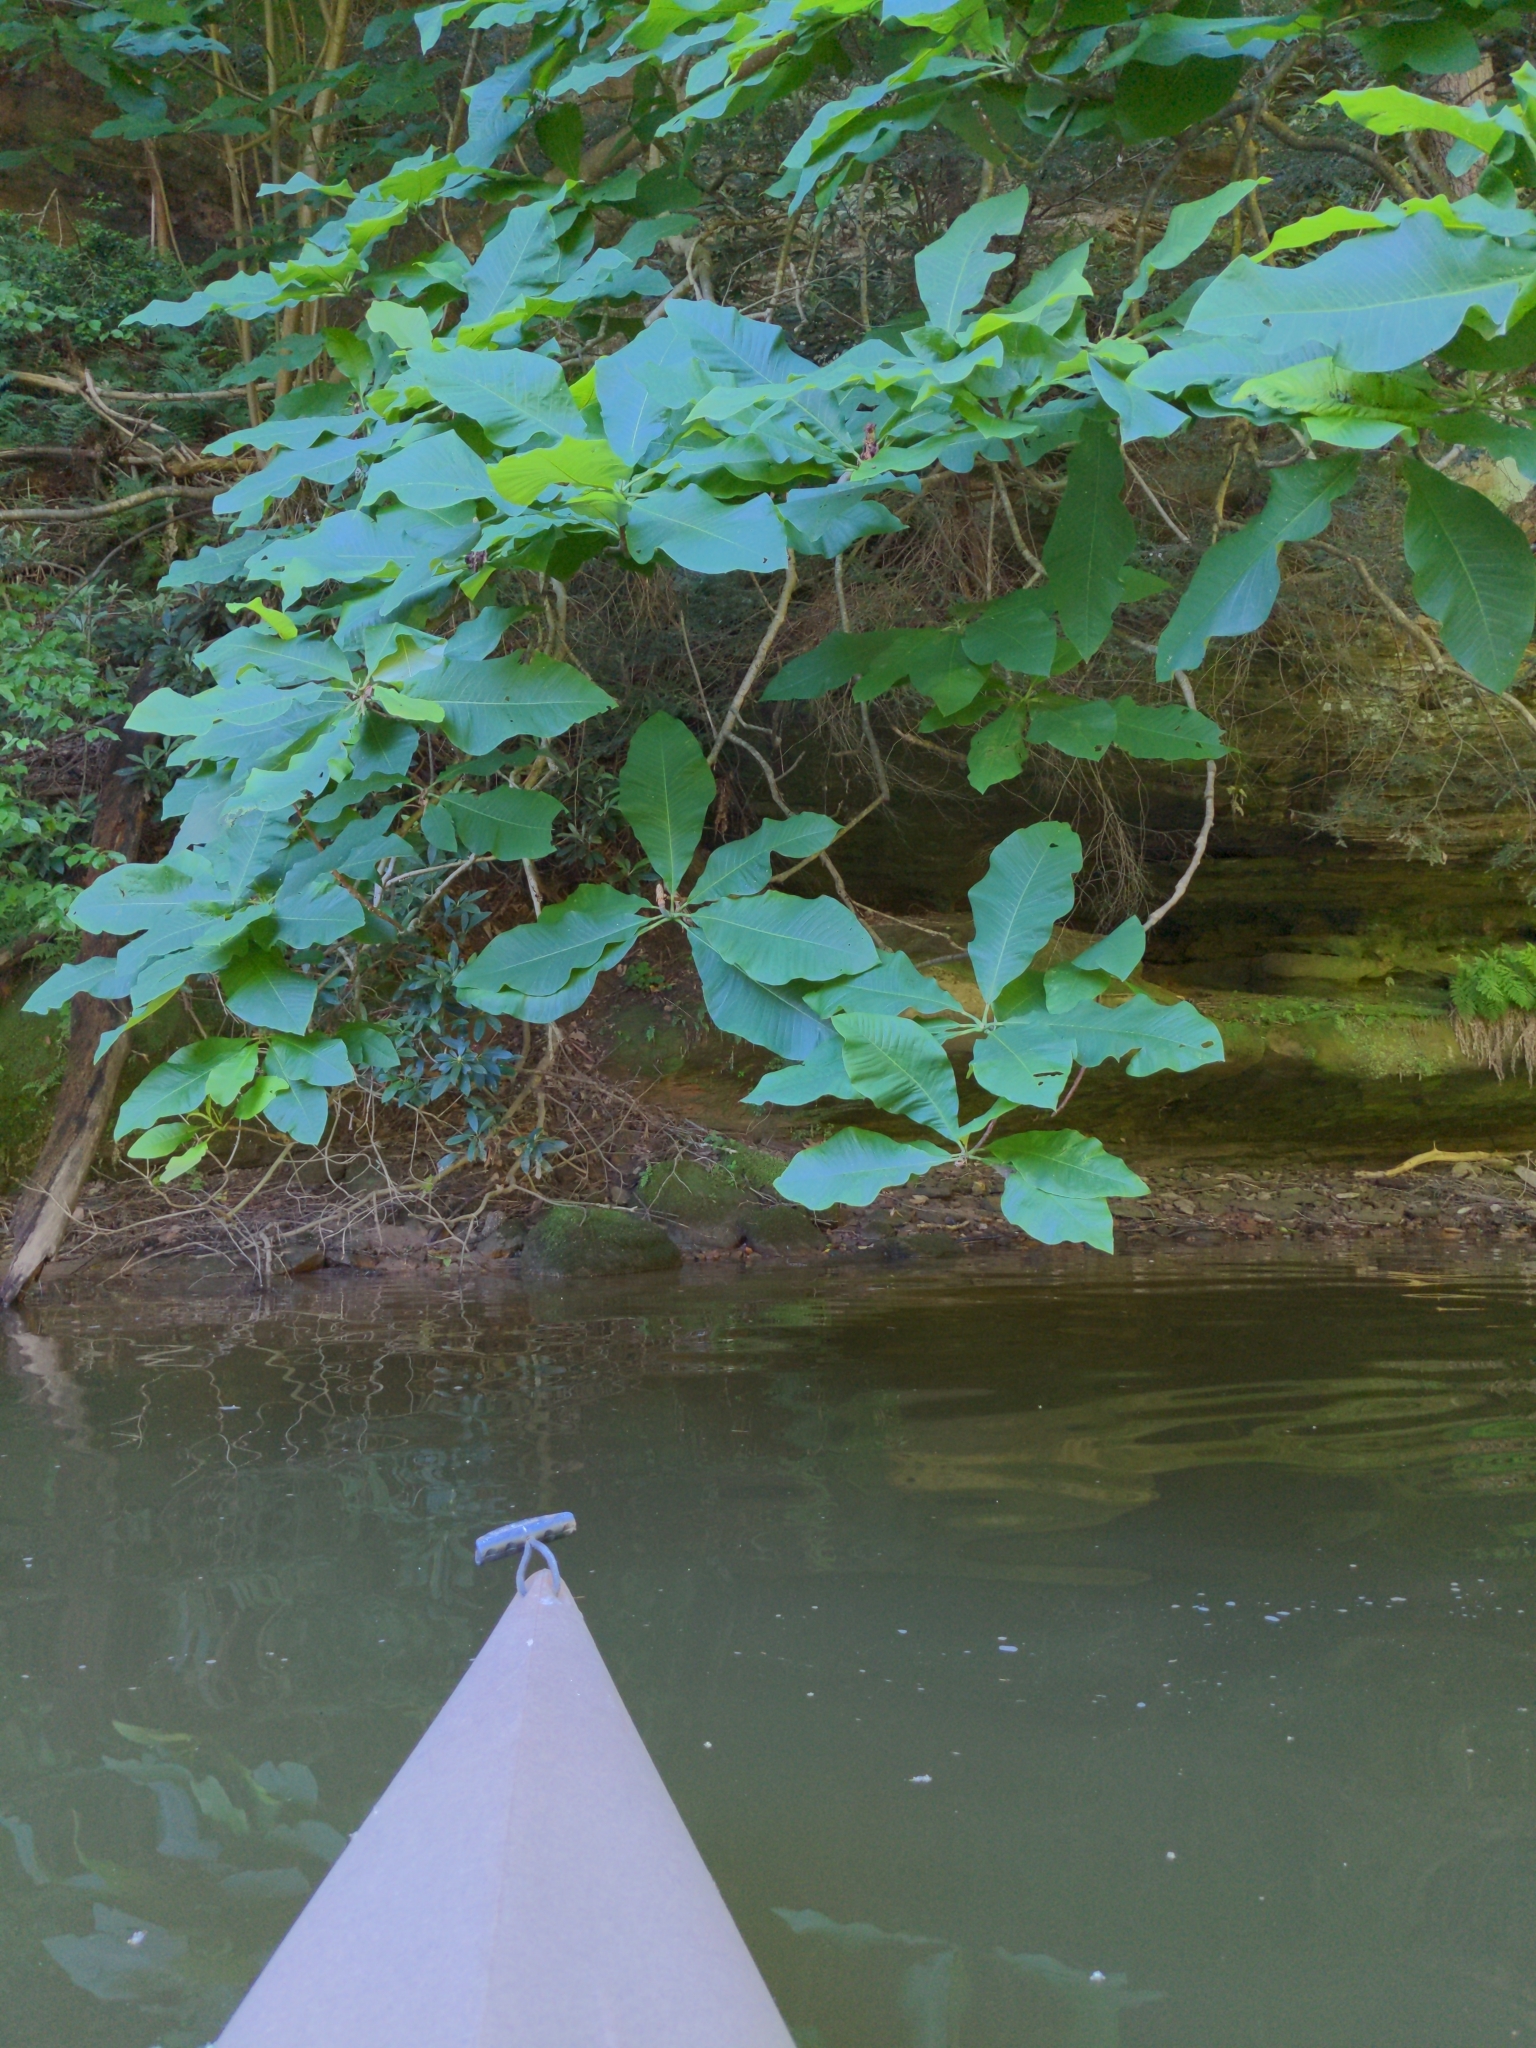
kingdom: Plantae
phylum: Tracheophyta
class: Magnoliopsida
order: Magnoliales
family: Magnoliaceae
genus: Magnolia
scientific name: Magnolia tripetala
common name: Umbrella magnolia
